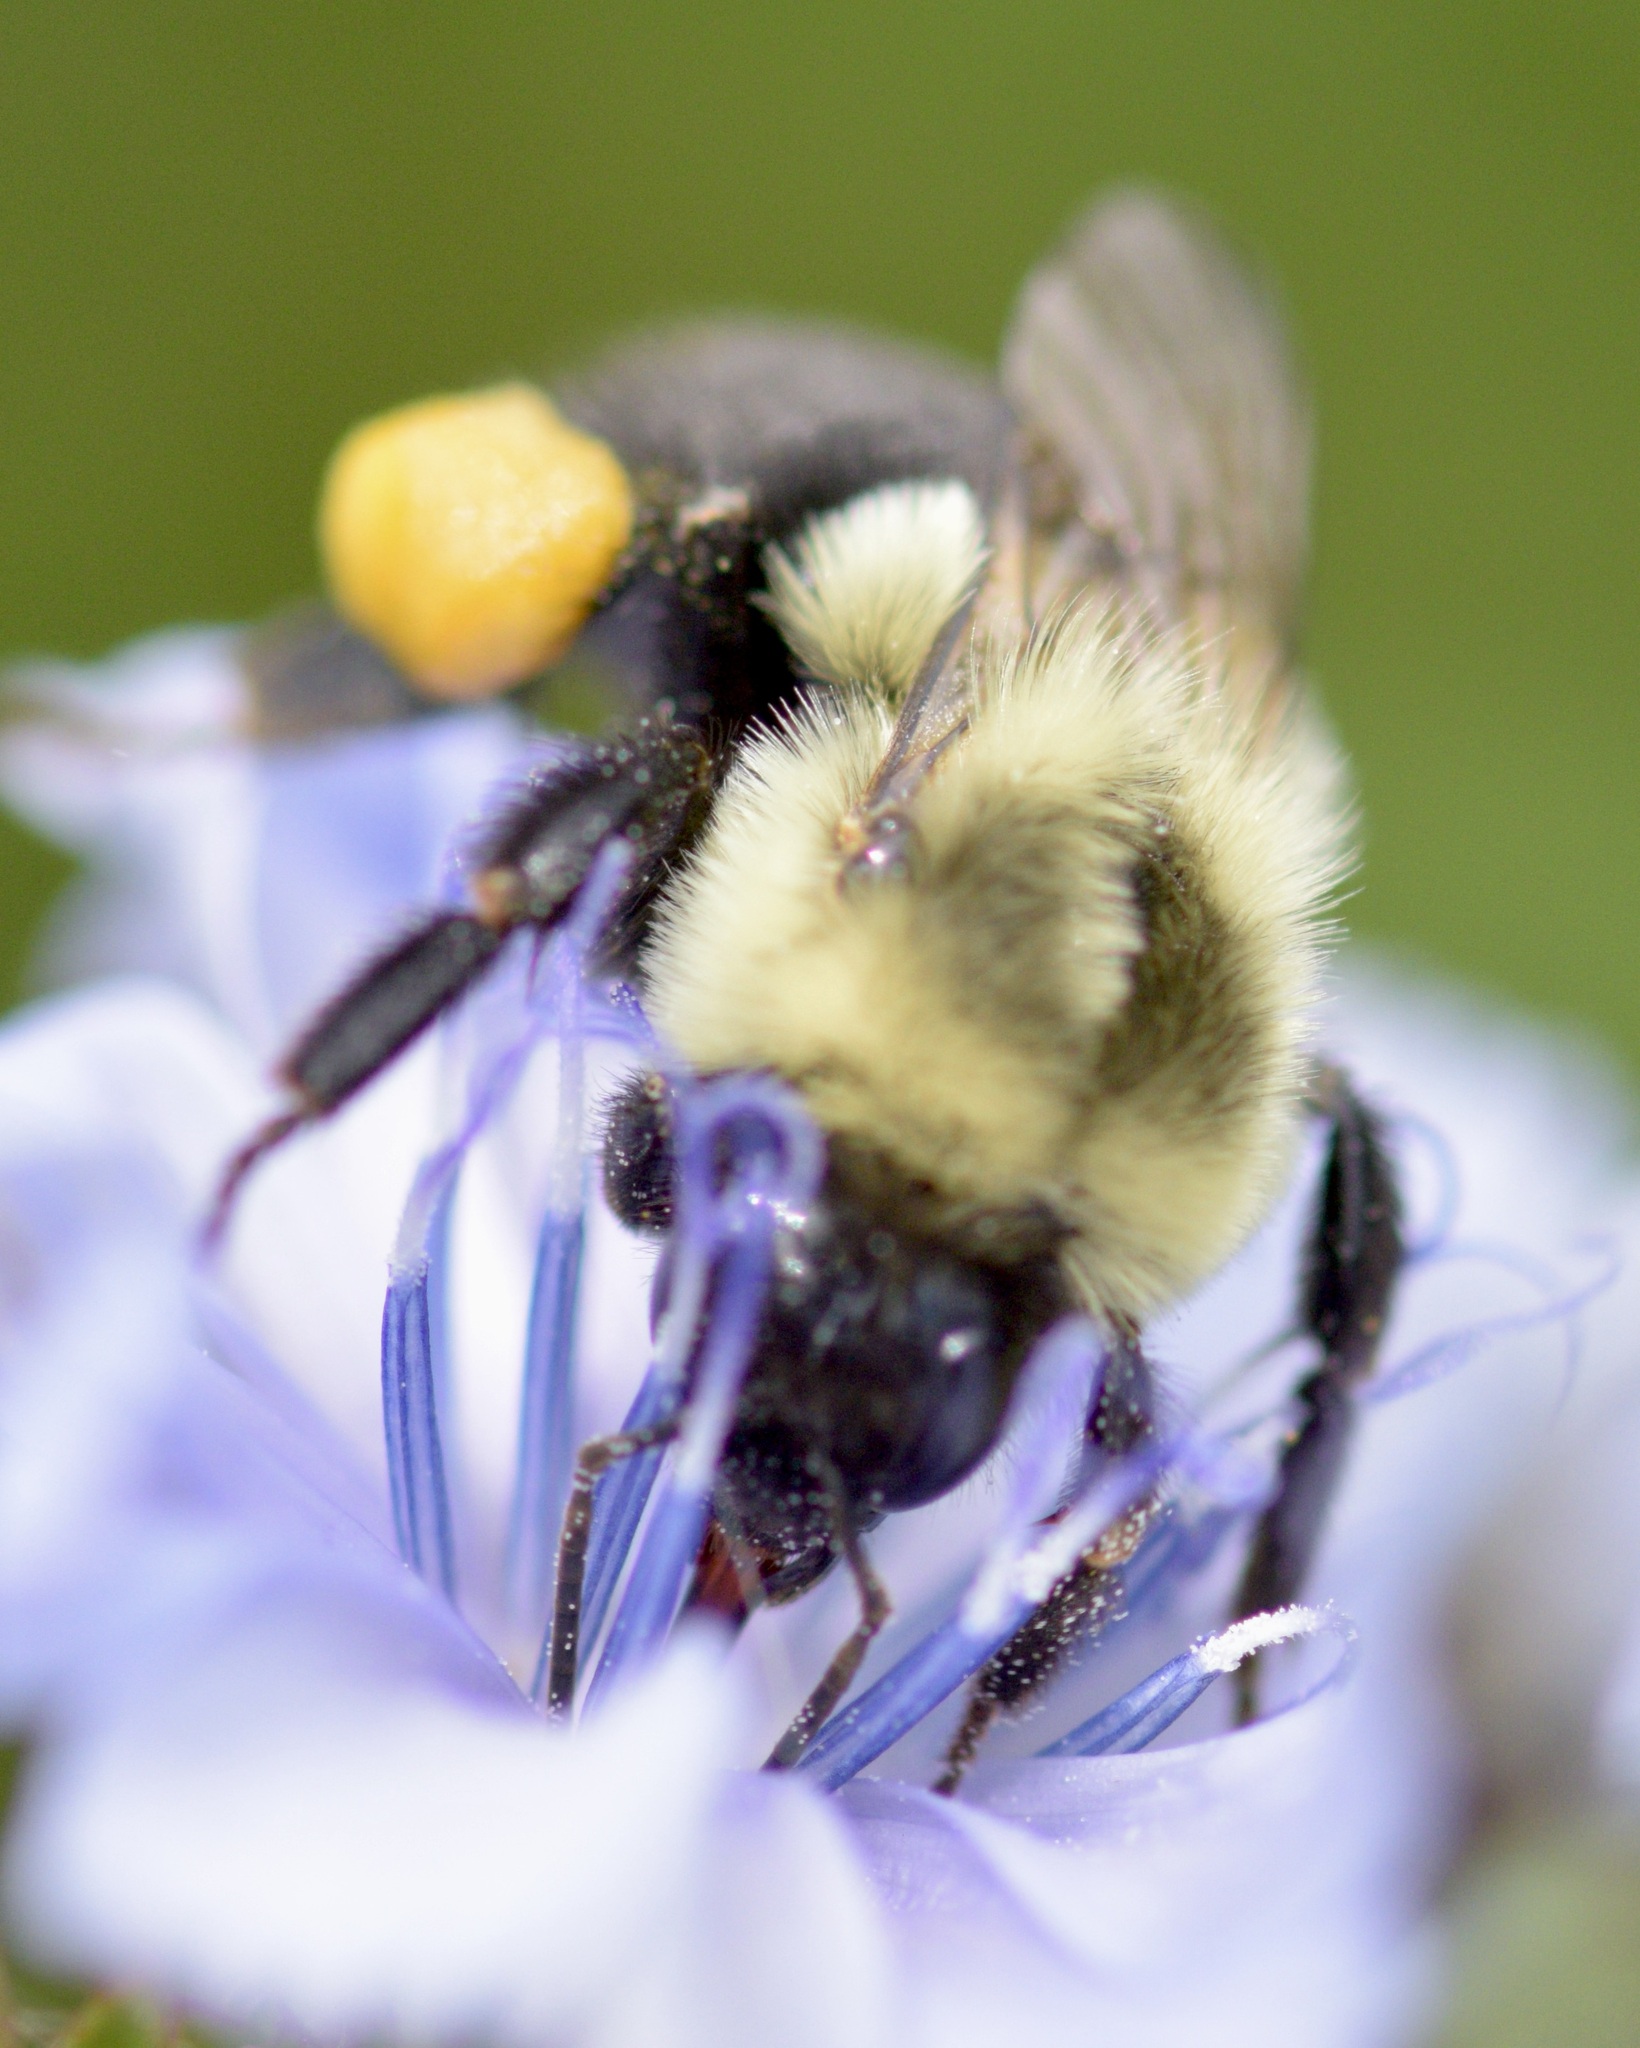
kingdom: Animalia
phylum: Arthropoda
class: Insecta
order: Hymenoptera
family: Apidae
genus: Bombus
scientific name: Bombus impatiens
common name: Common eastern bumble bee
